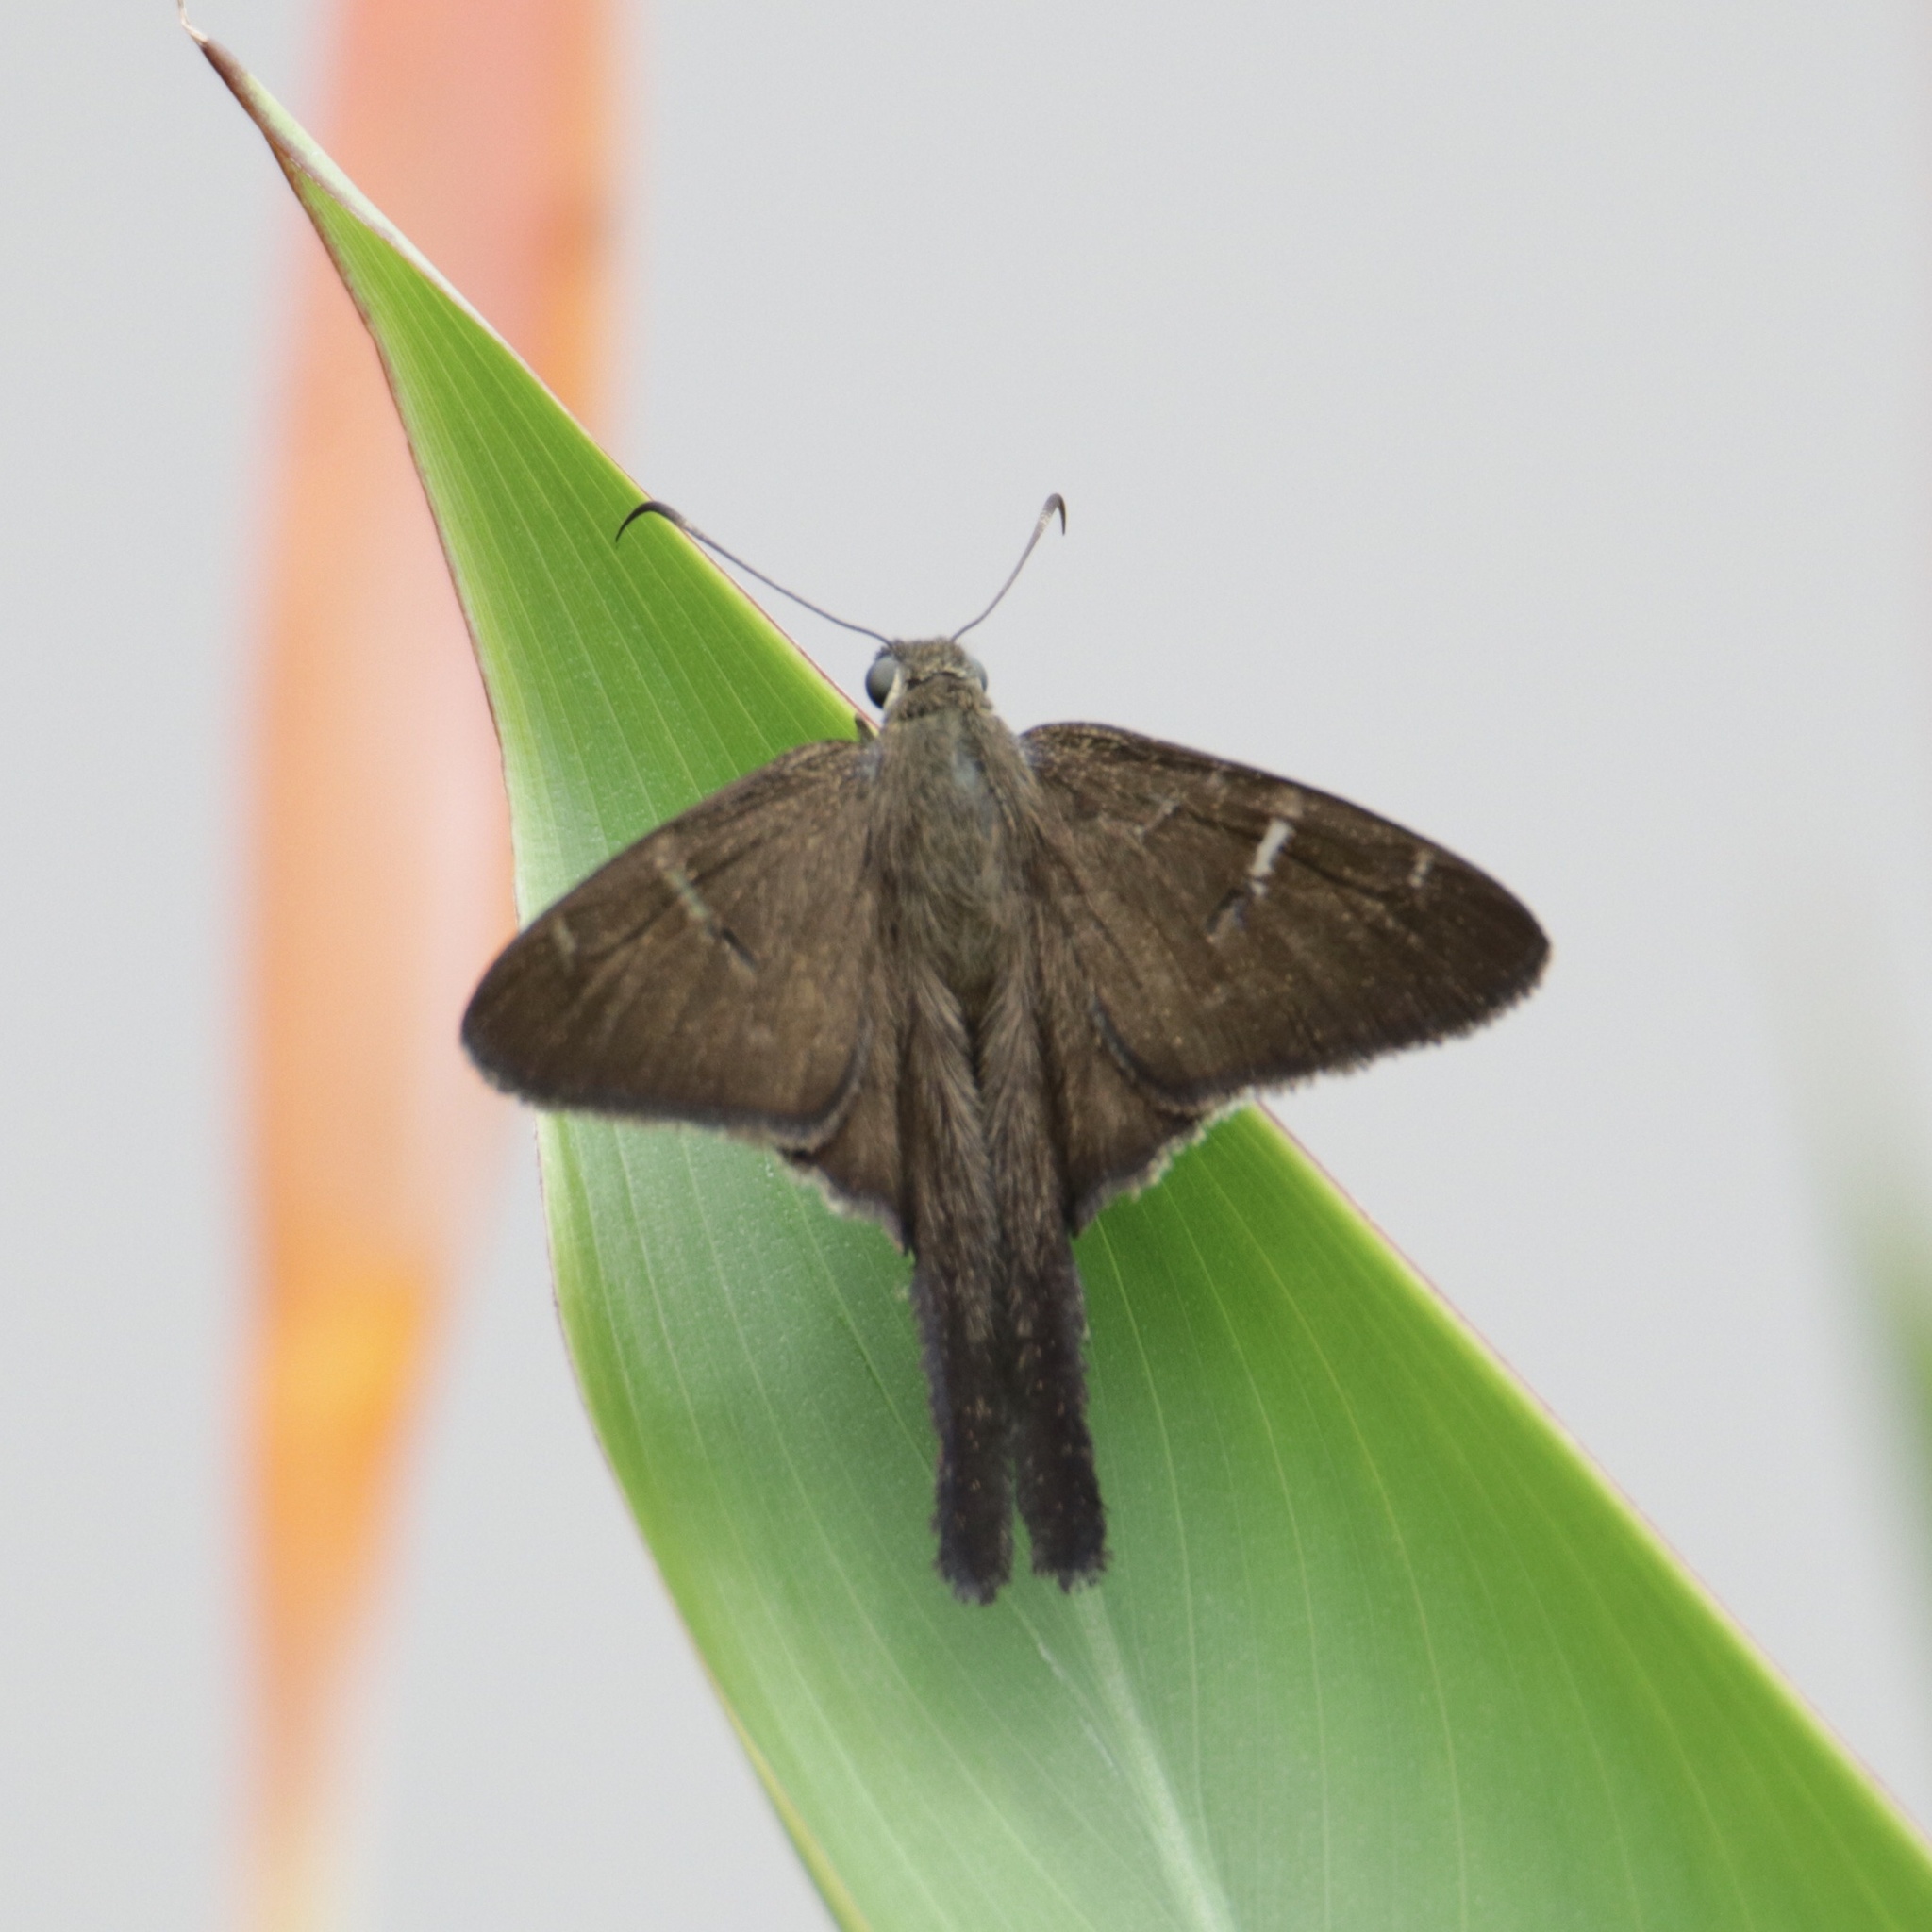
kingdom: Animalia
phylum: Arthropoda
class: Insecta
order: Lepidoptera
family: Hesperiidae
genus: Urbanus
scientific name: Urbanus procne
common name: Brown longtail
